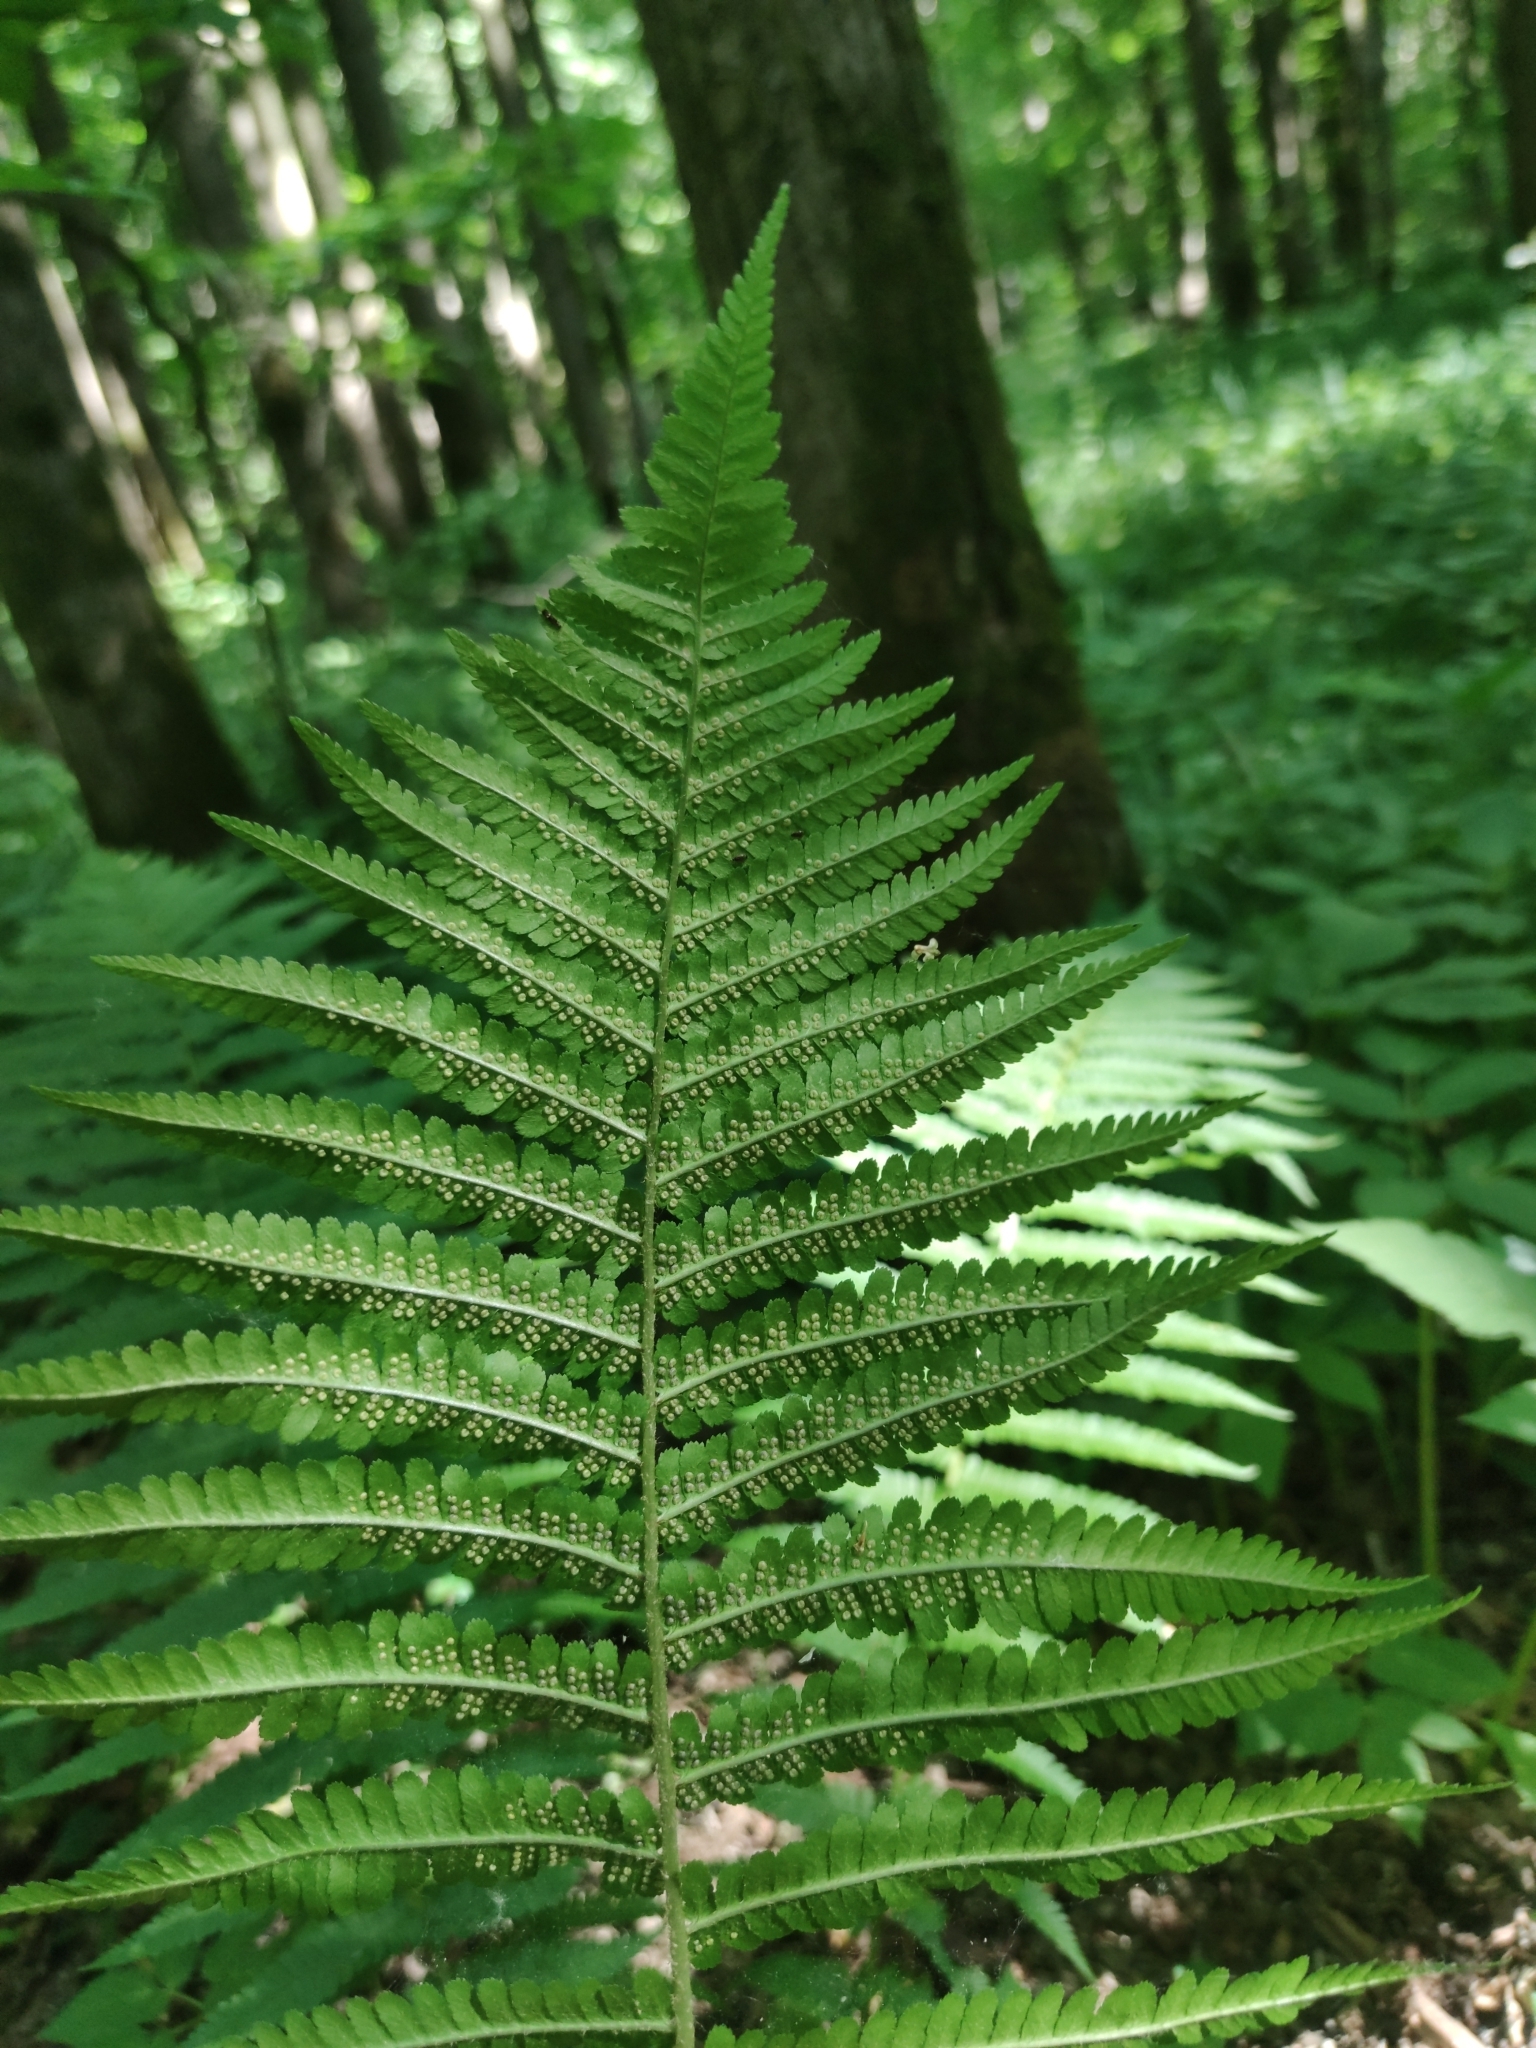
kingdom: Plantae
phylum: Tracheophyta
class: Polypodiopsida
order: Polypodiales
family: Dryopteridaceae
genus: Dryopteris
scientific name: Dryopteris filix-mas
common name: Male fern
